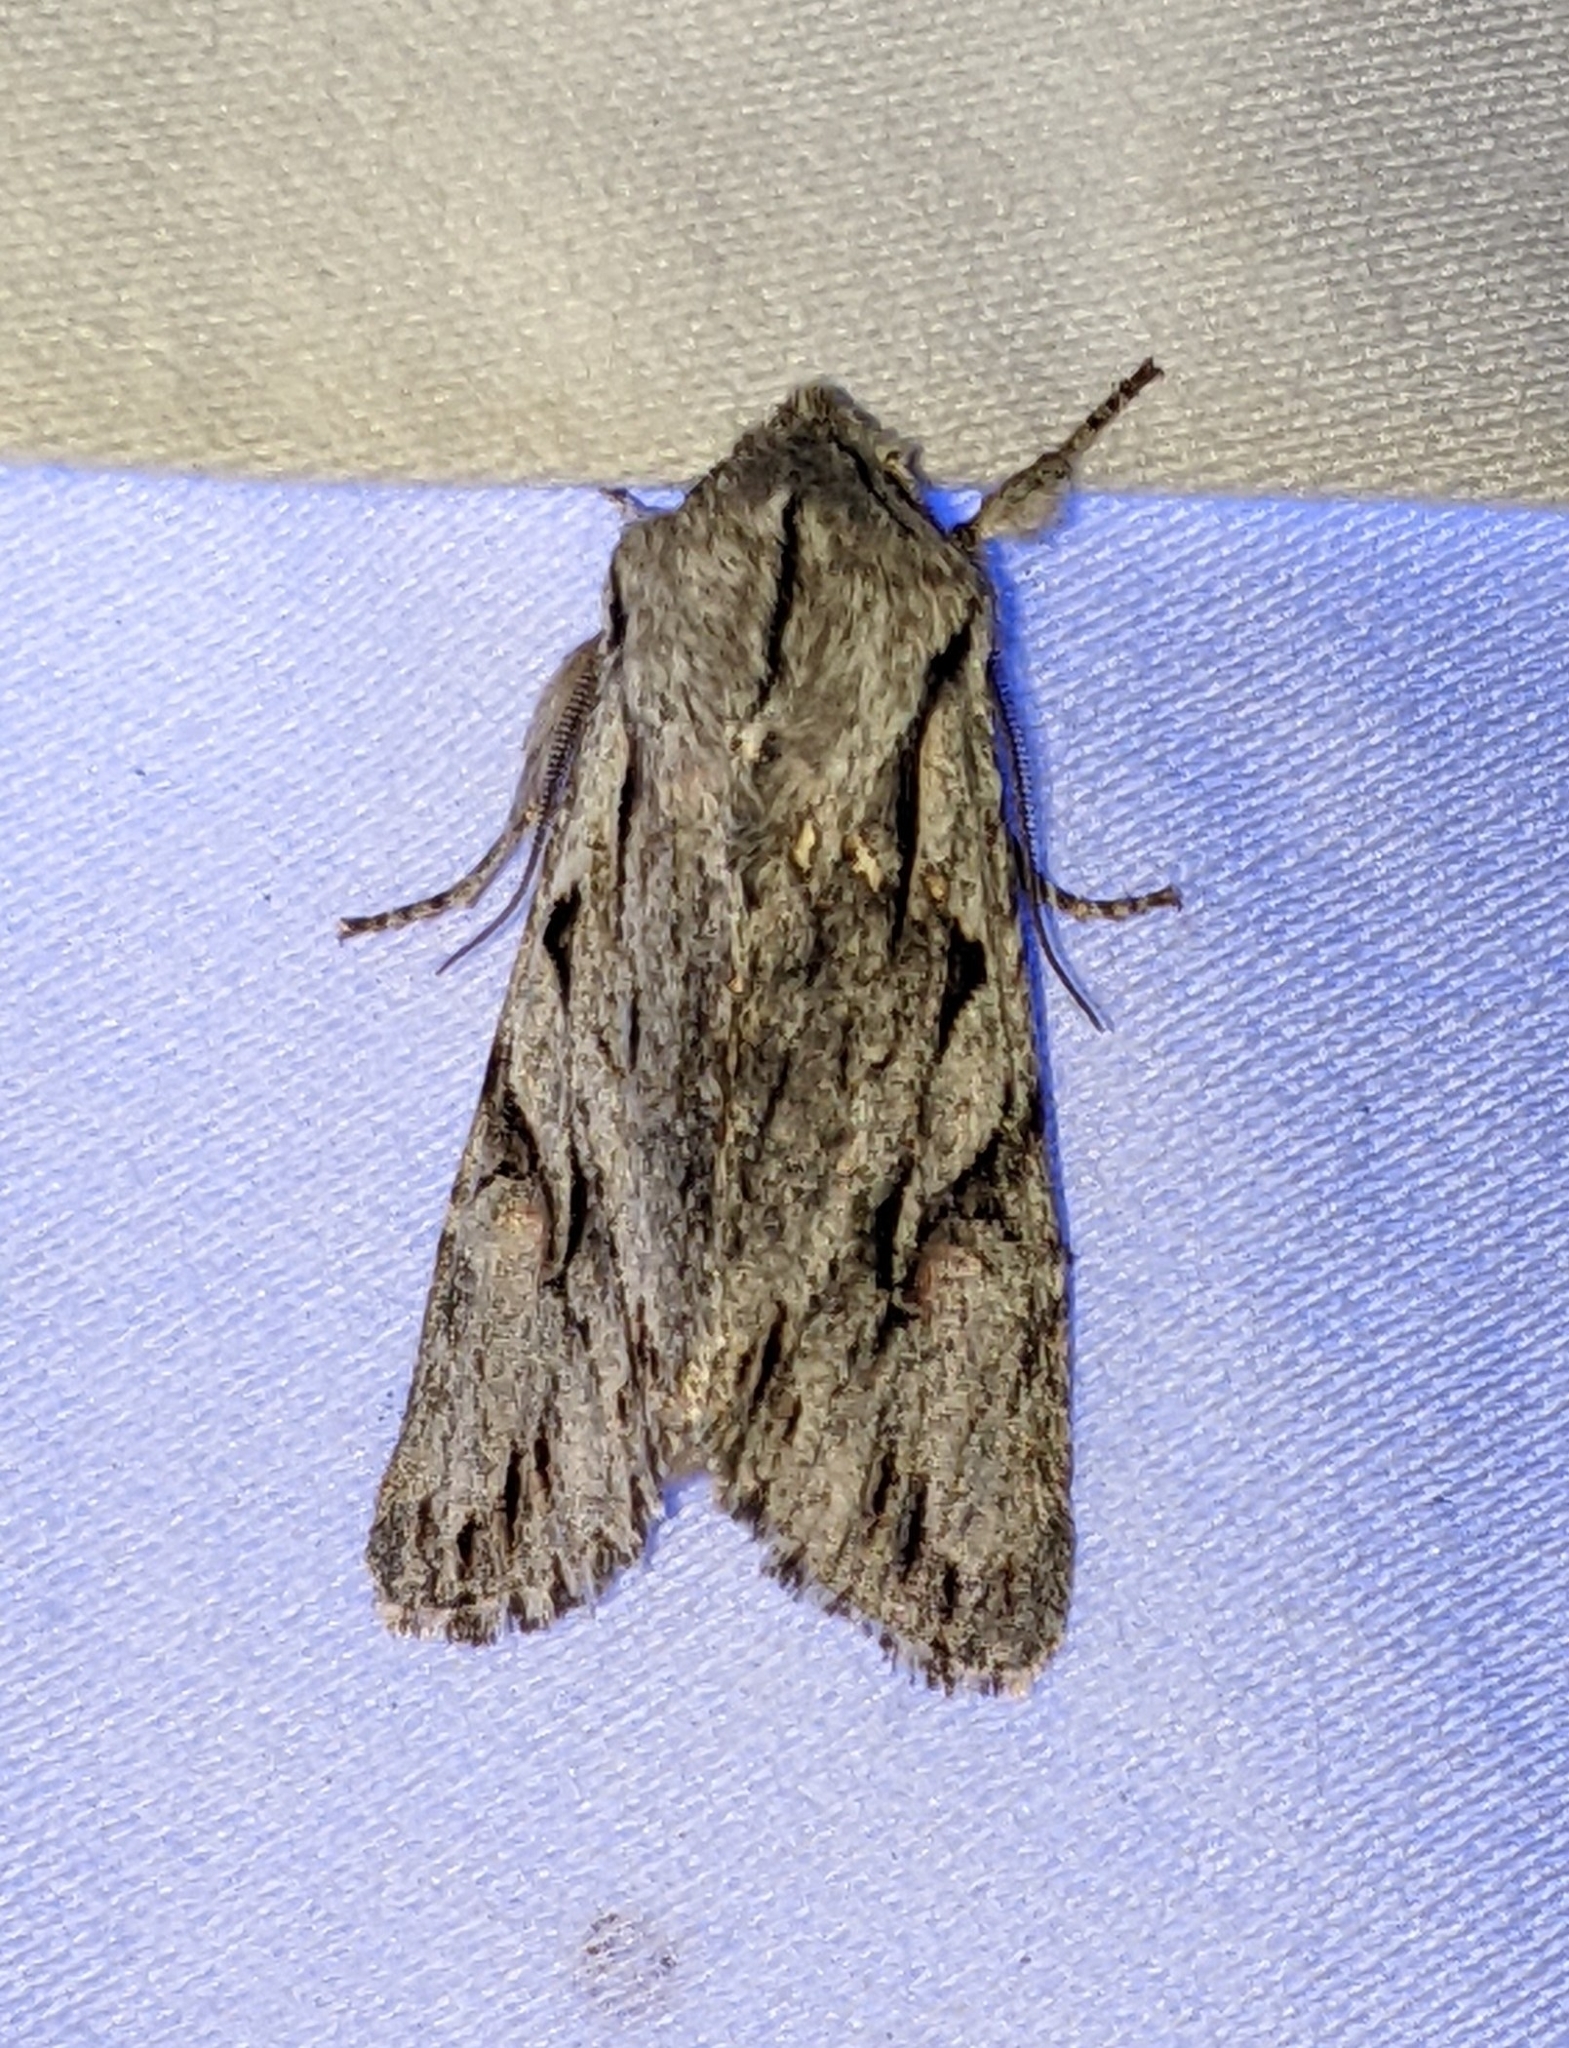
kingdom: Animalia
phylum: Arthropoda
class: Insecta
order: Lepidoptera
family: Noctuidae
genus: Egira
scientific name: Egira crucialis
